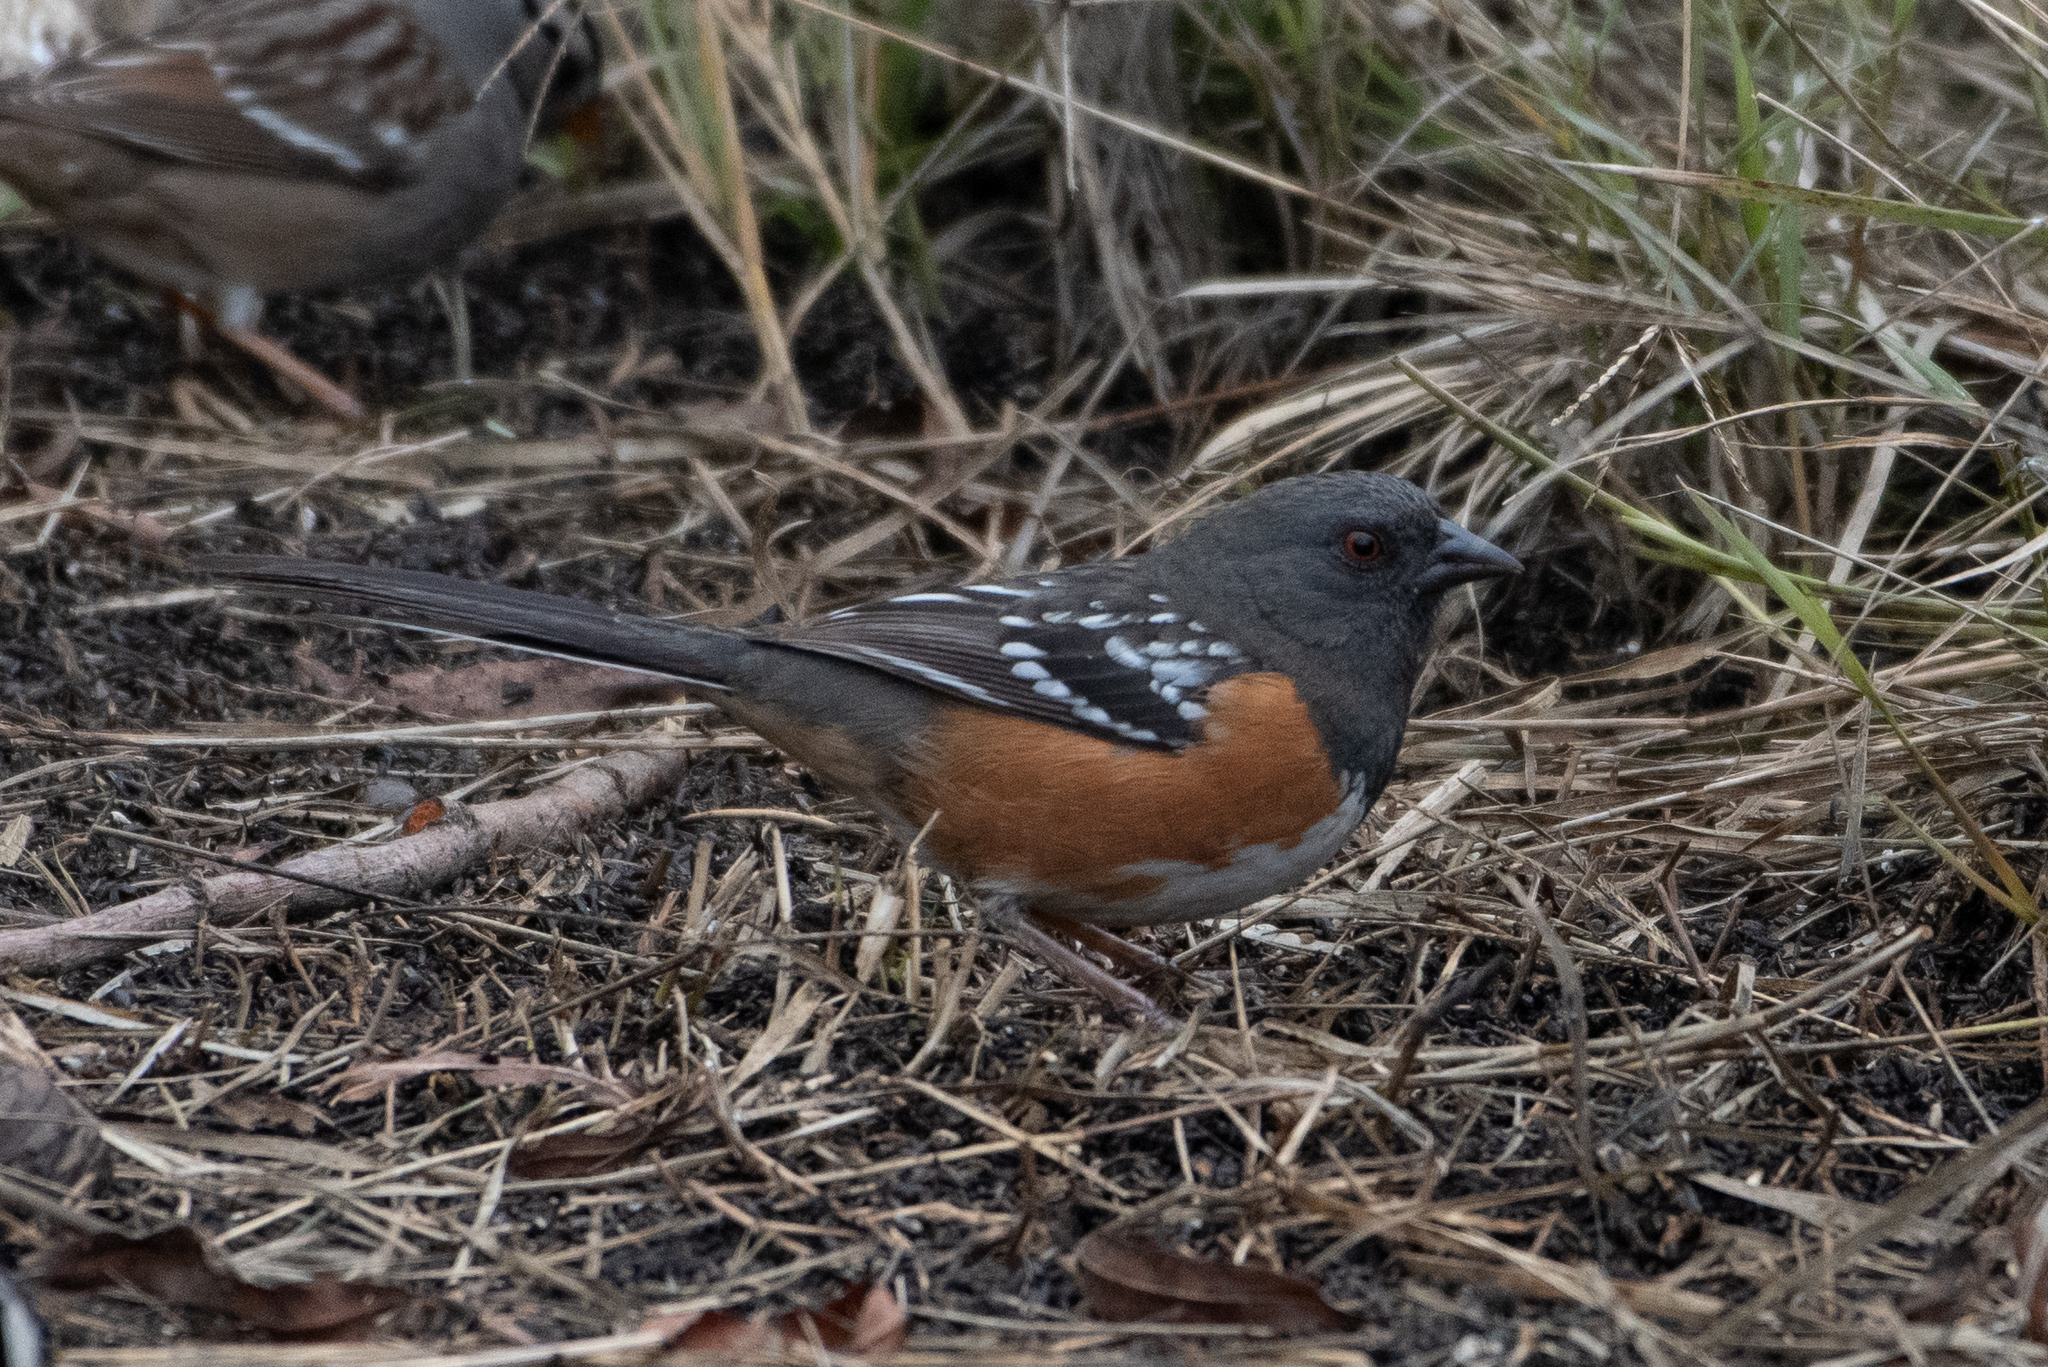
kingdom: Animalia
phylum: Chordata
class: Aves
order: Passeriformes
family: Passerellidae
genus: Pipilo
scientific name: Pipilo maculatus
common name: Spotted towhee
